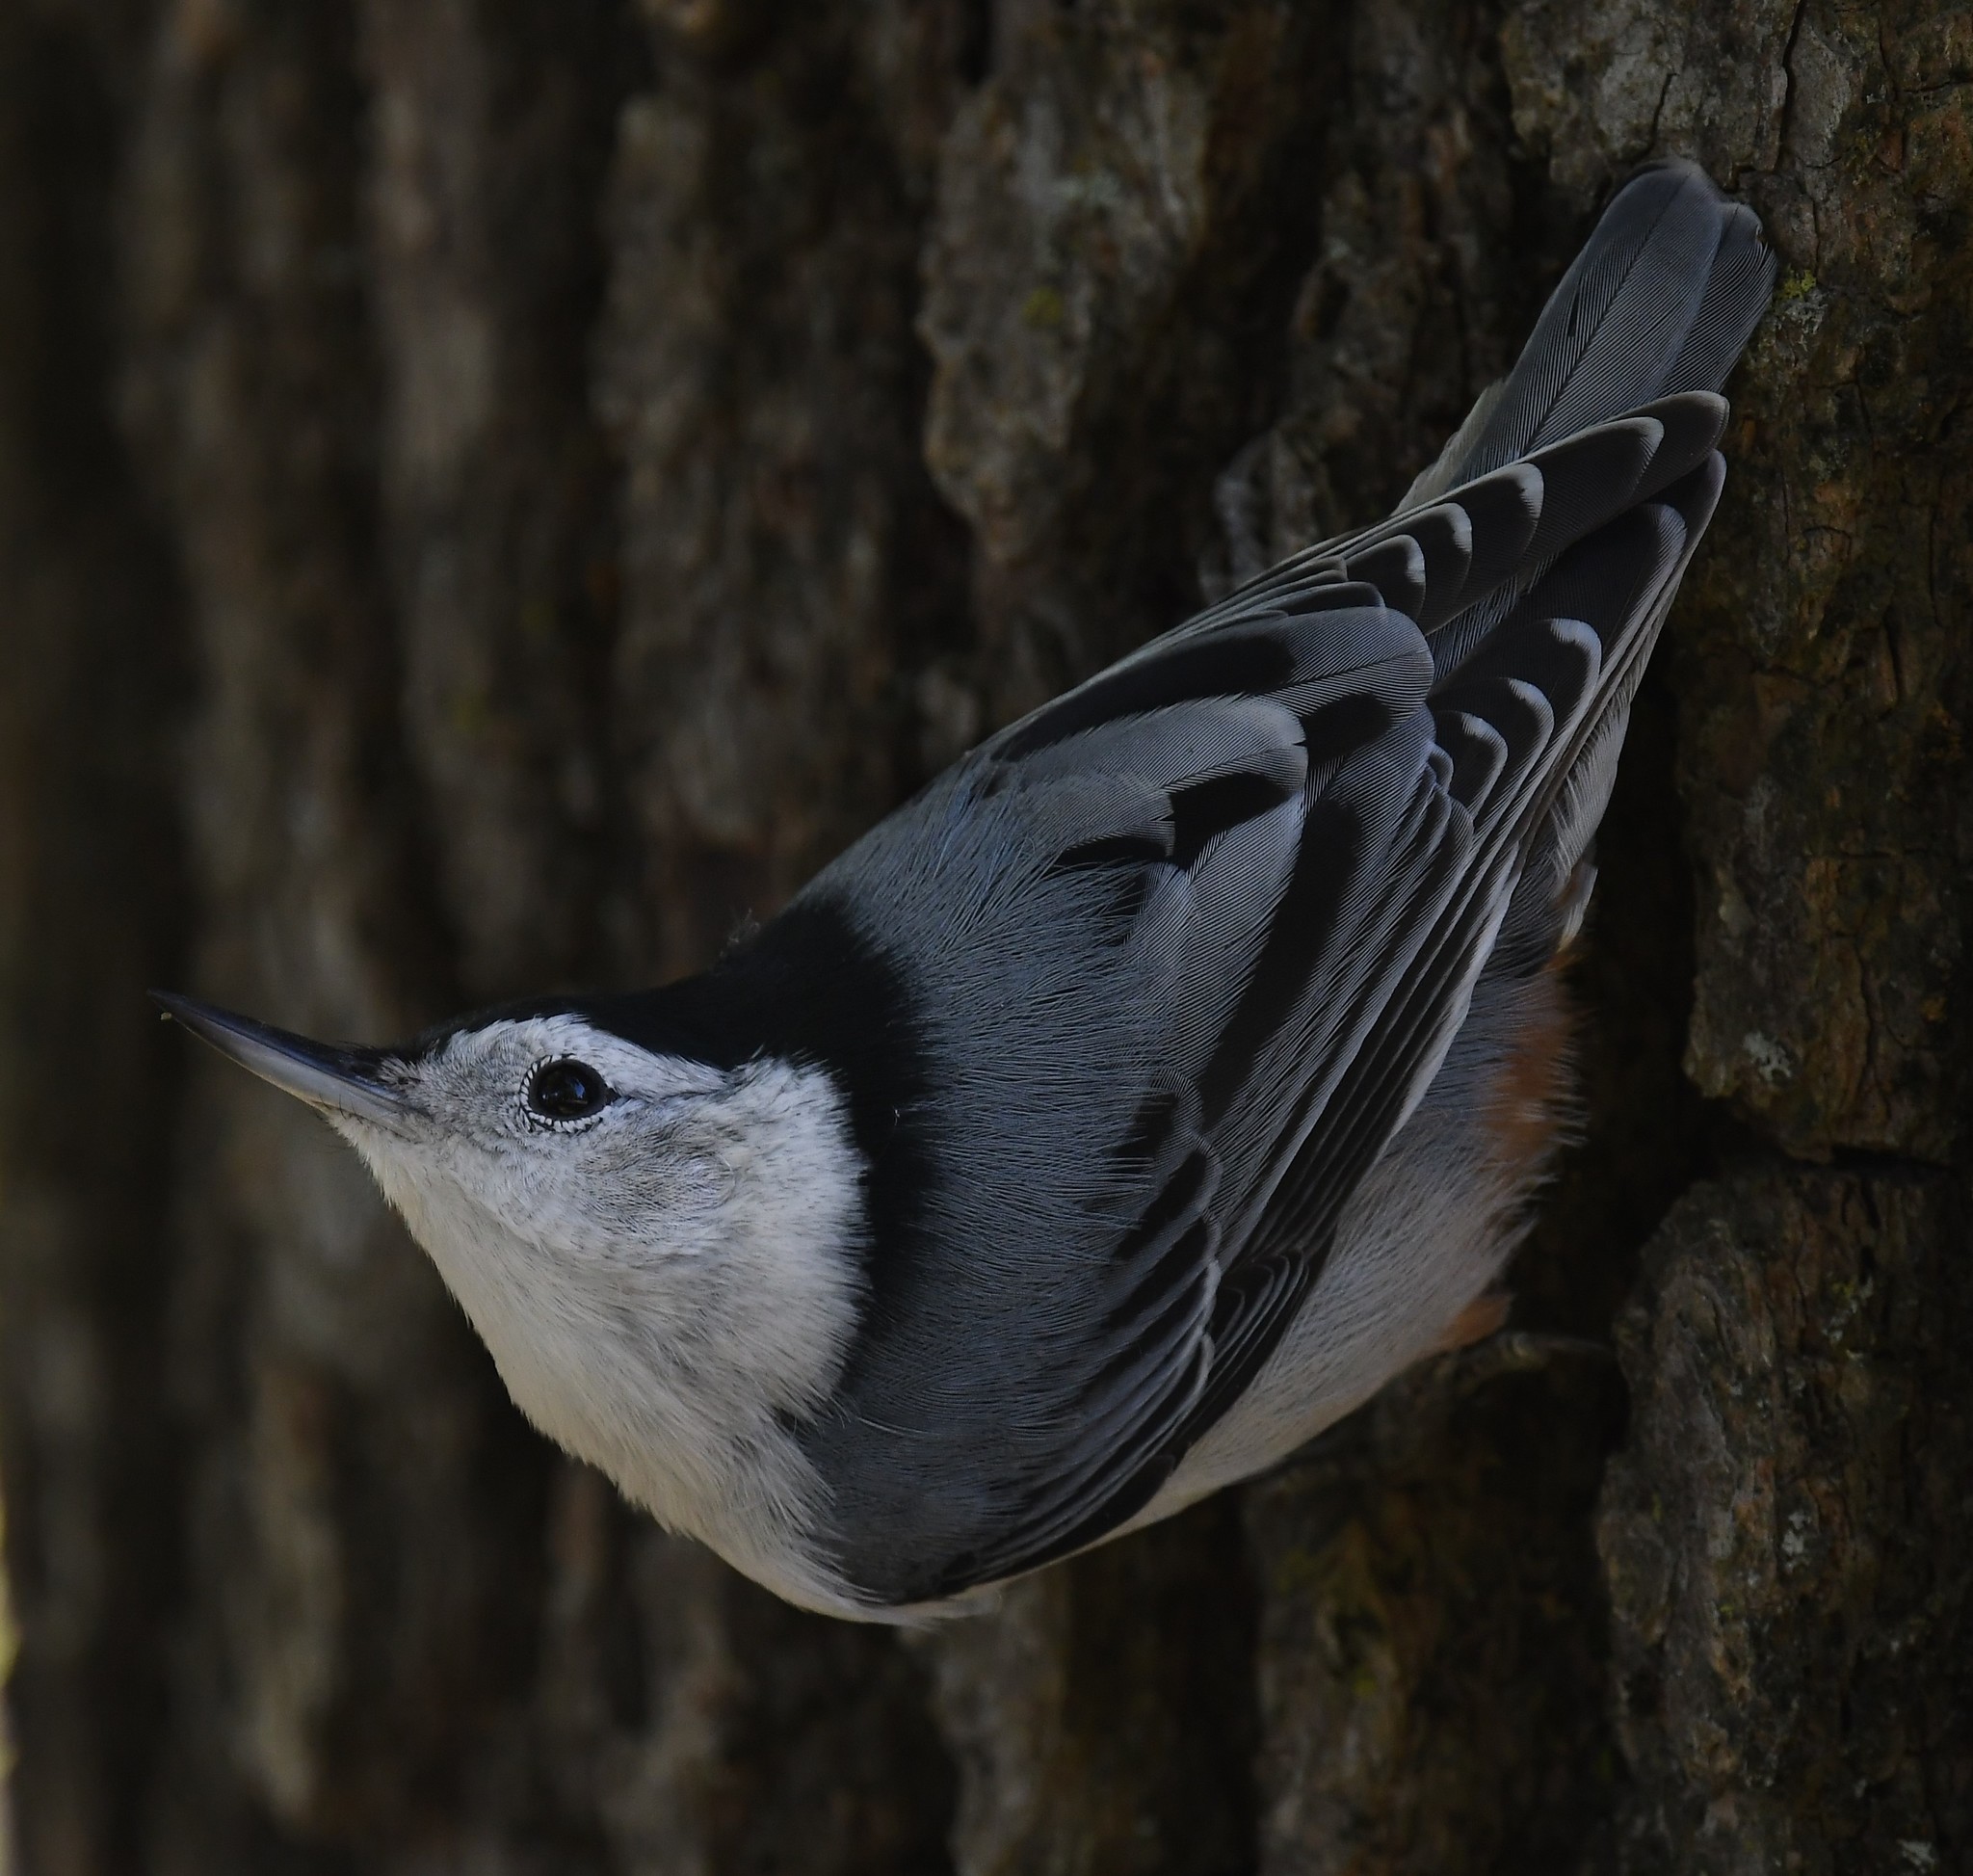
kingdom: Animalia
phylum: Chordata
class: Aves
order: Passeriformes
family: Sittidae
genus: Sitta
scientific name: Sitta carolinensis
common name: White-breasted nuthatch
